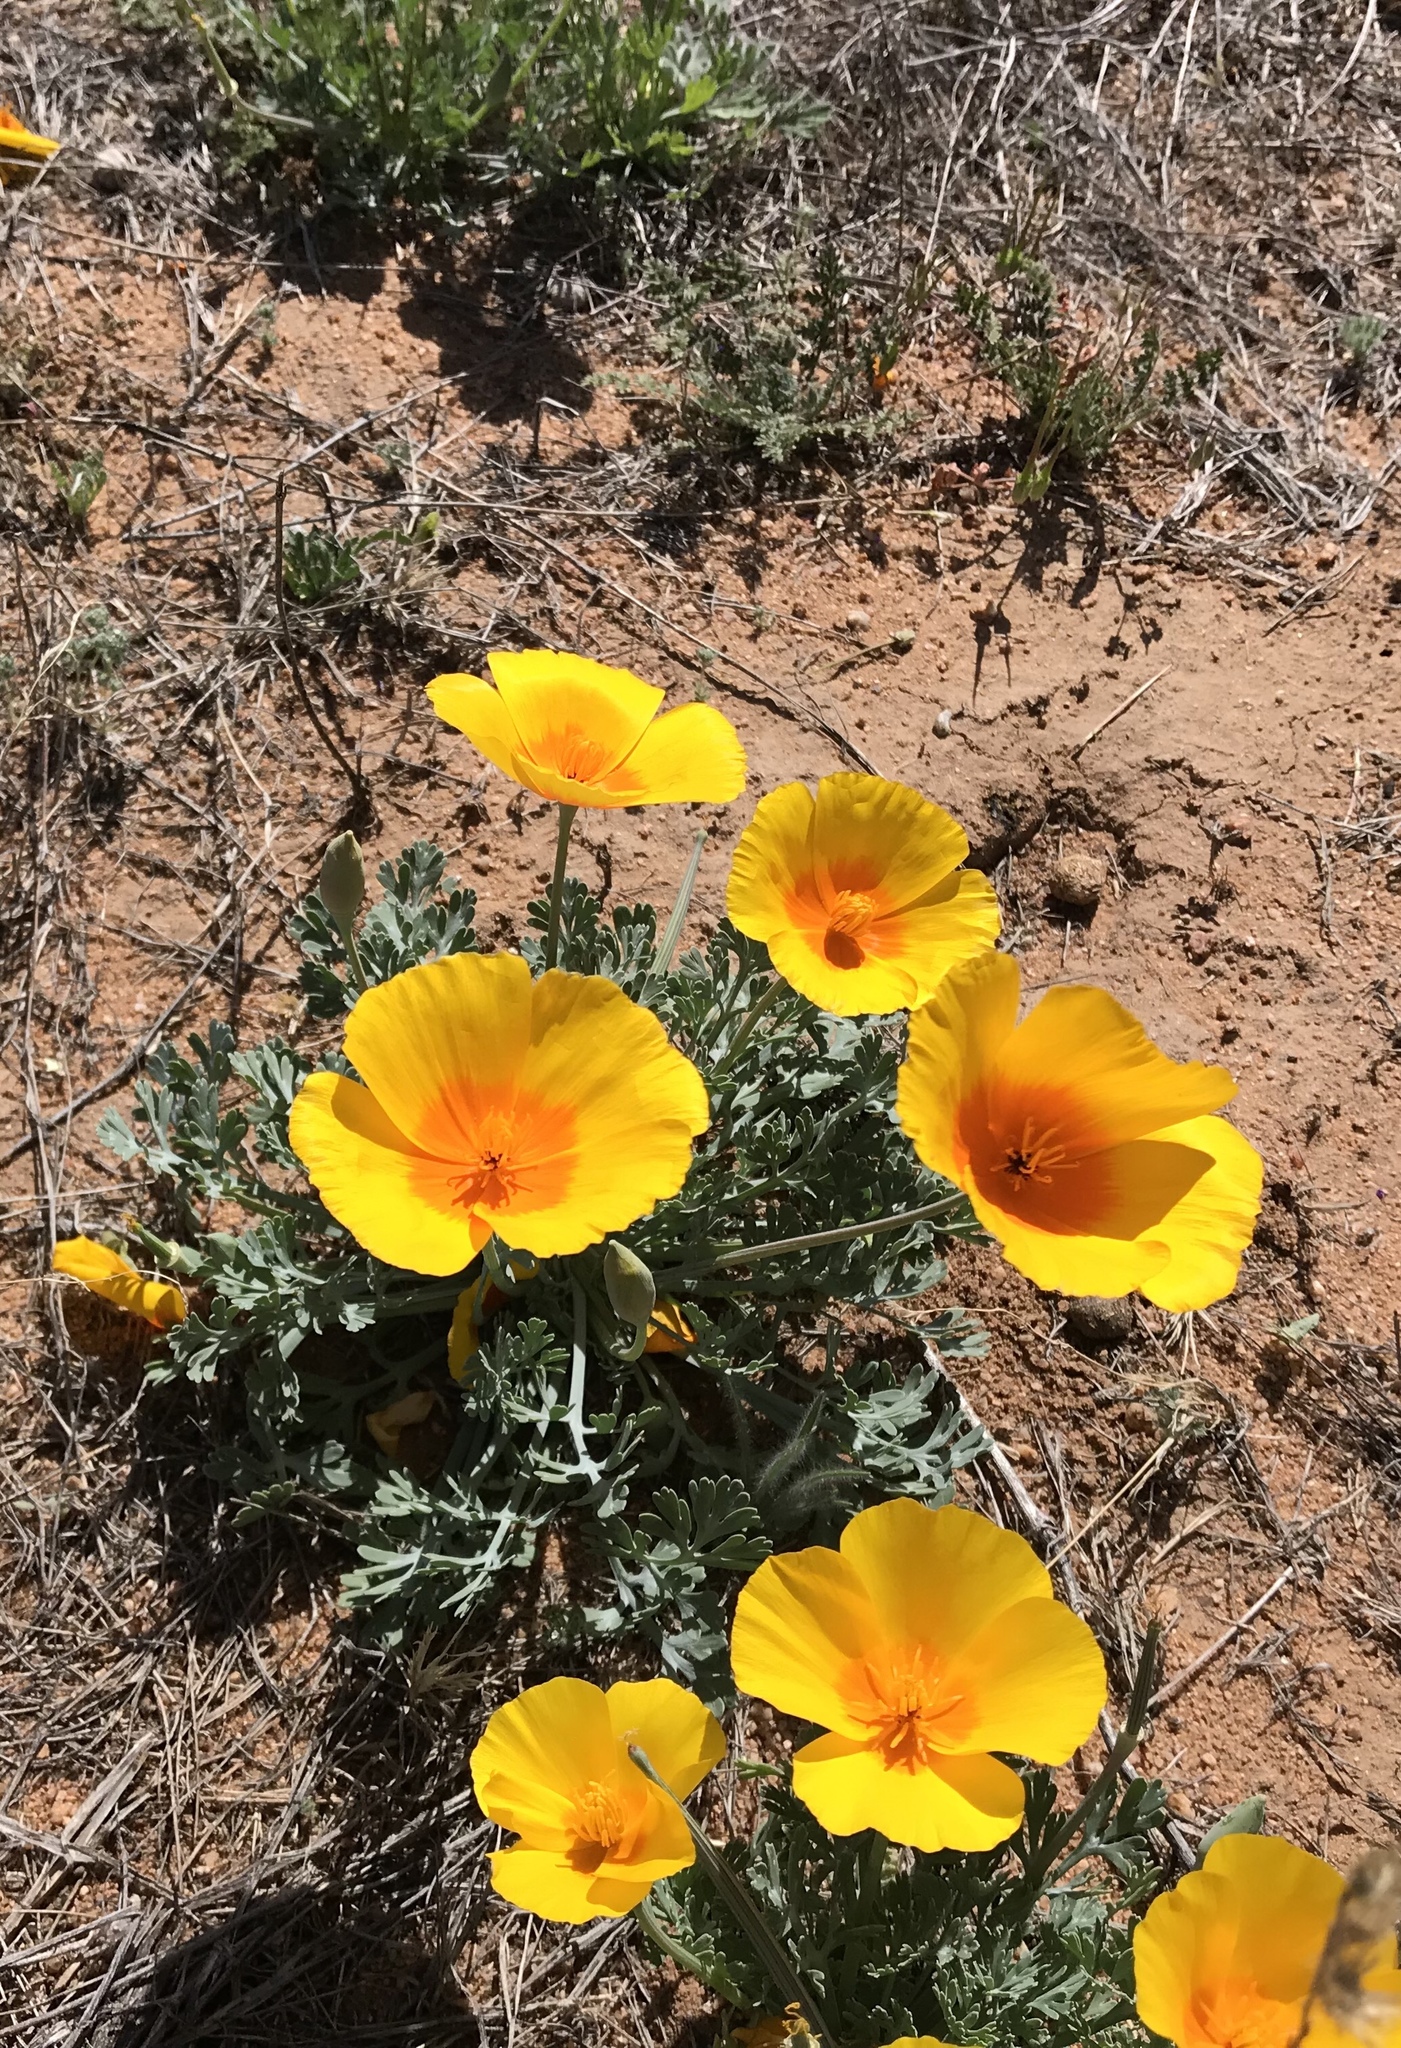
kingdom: Plantae
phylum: Tracheophyta
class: Magnoliopsida
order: Ranunculales
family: Papaveraceae
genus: Eschscholzia
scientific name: Eschscholzia californica
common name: California poppy
